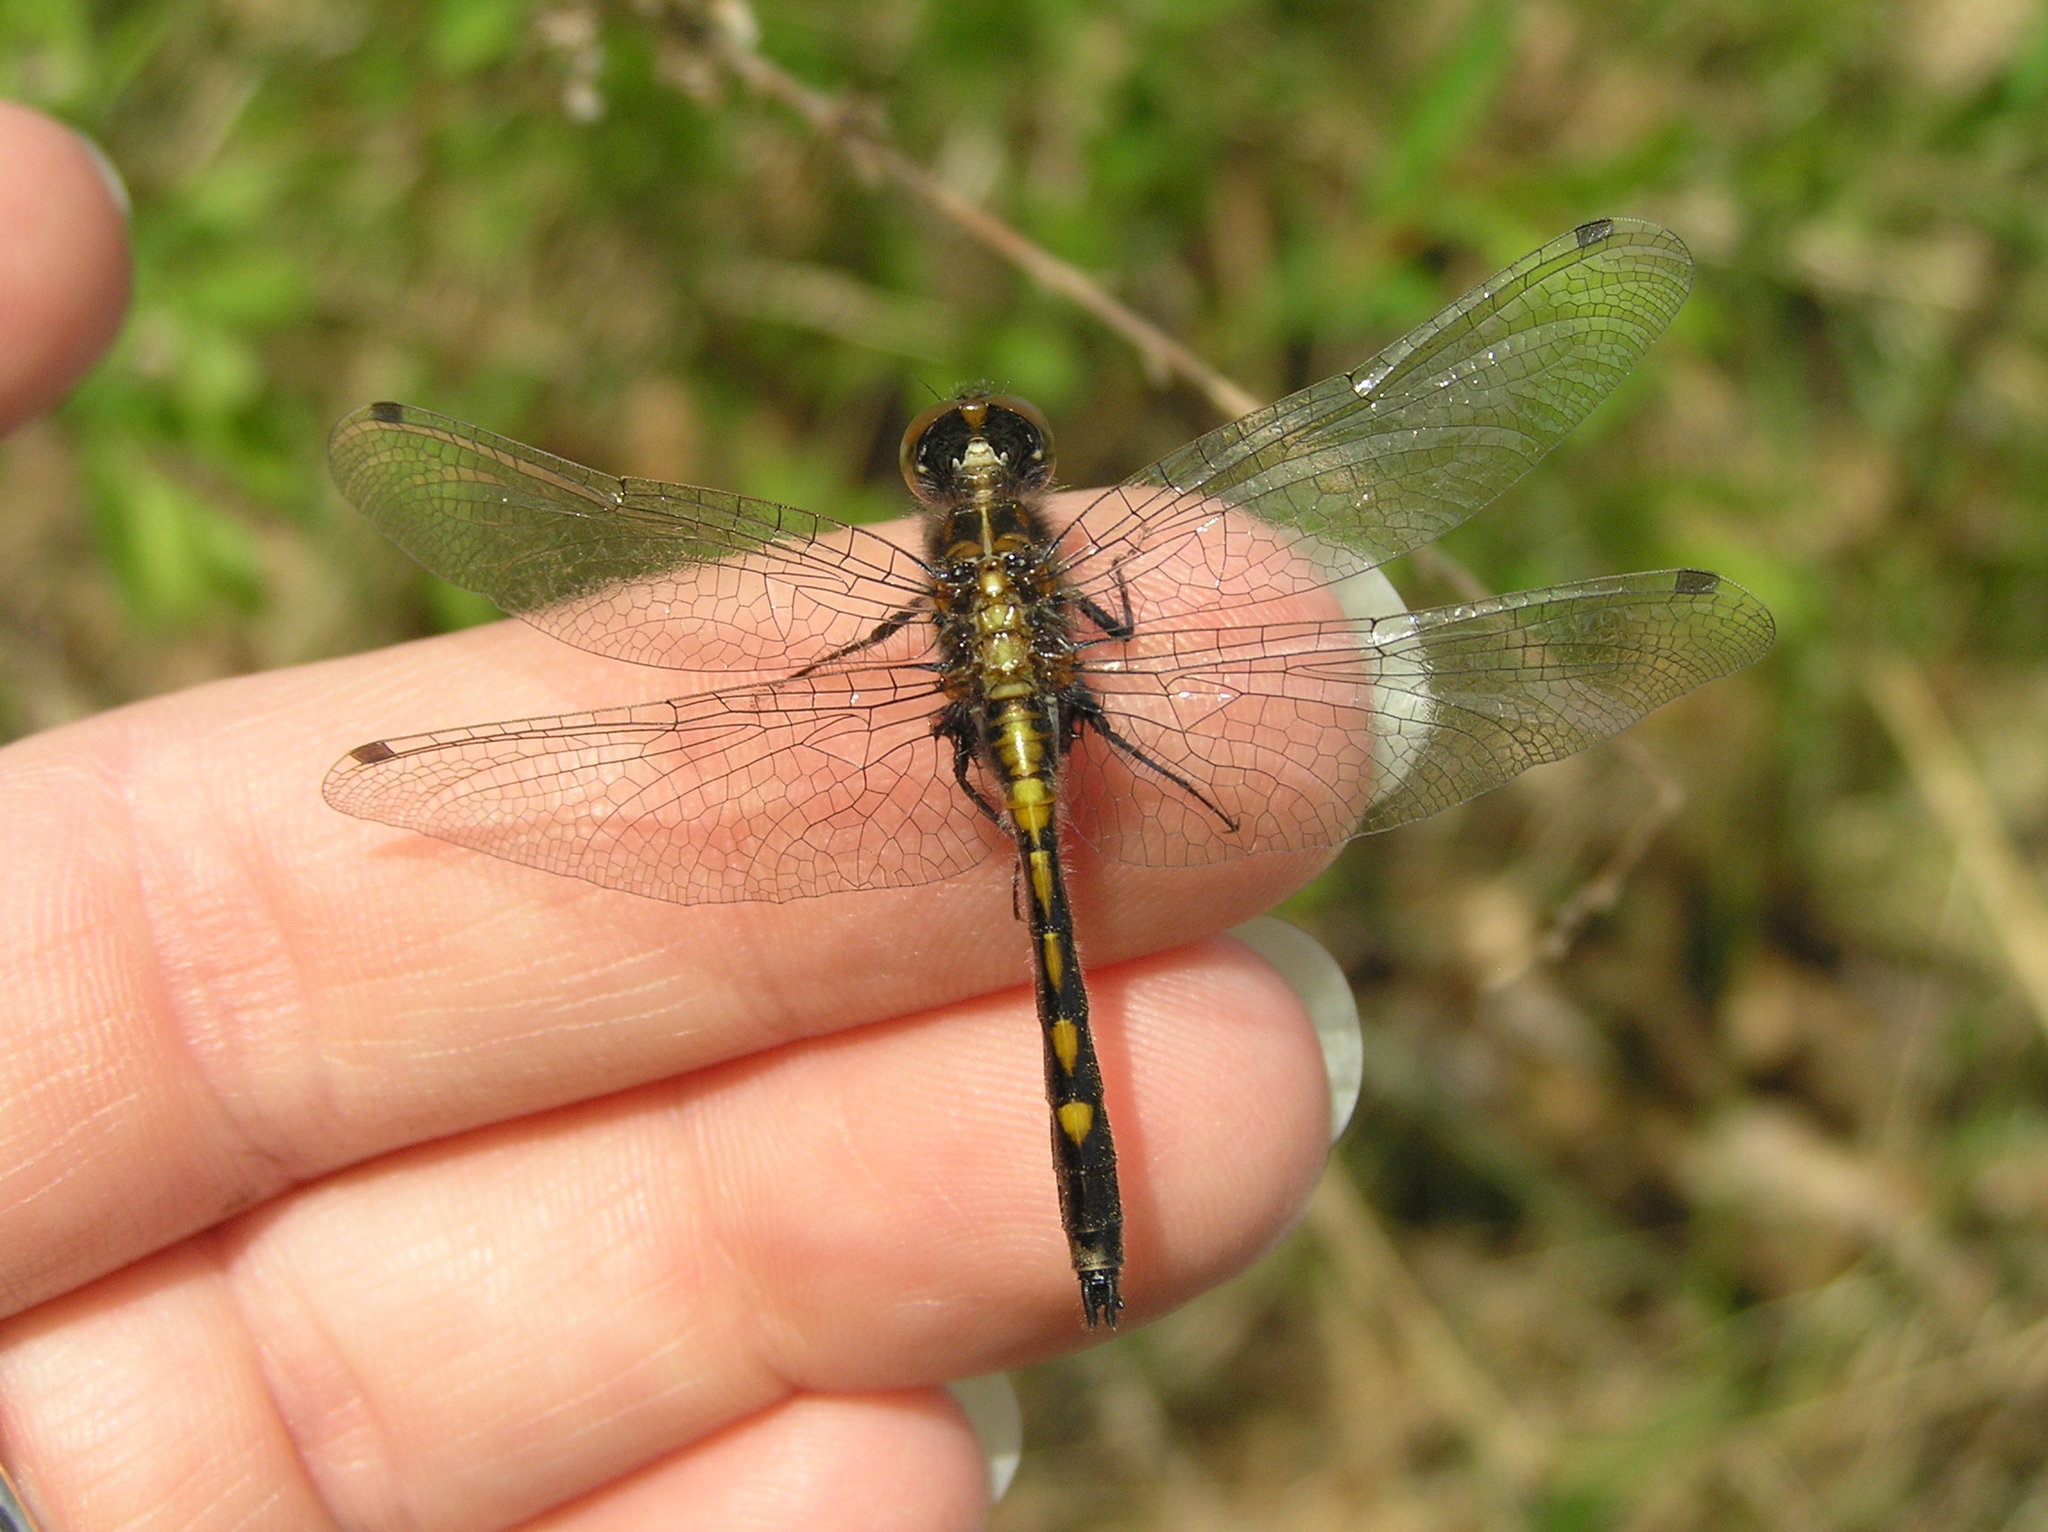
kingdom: Animalia
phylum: Arthropoda
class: Insecta
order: Odonata
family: Libellulidae
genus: Leucorrhinia
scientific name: Leucorrhinia intacta
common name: Dot-tailed whiteface
